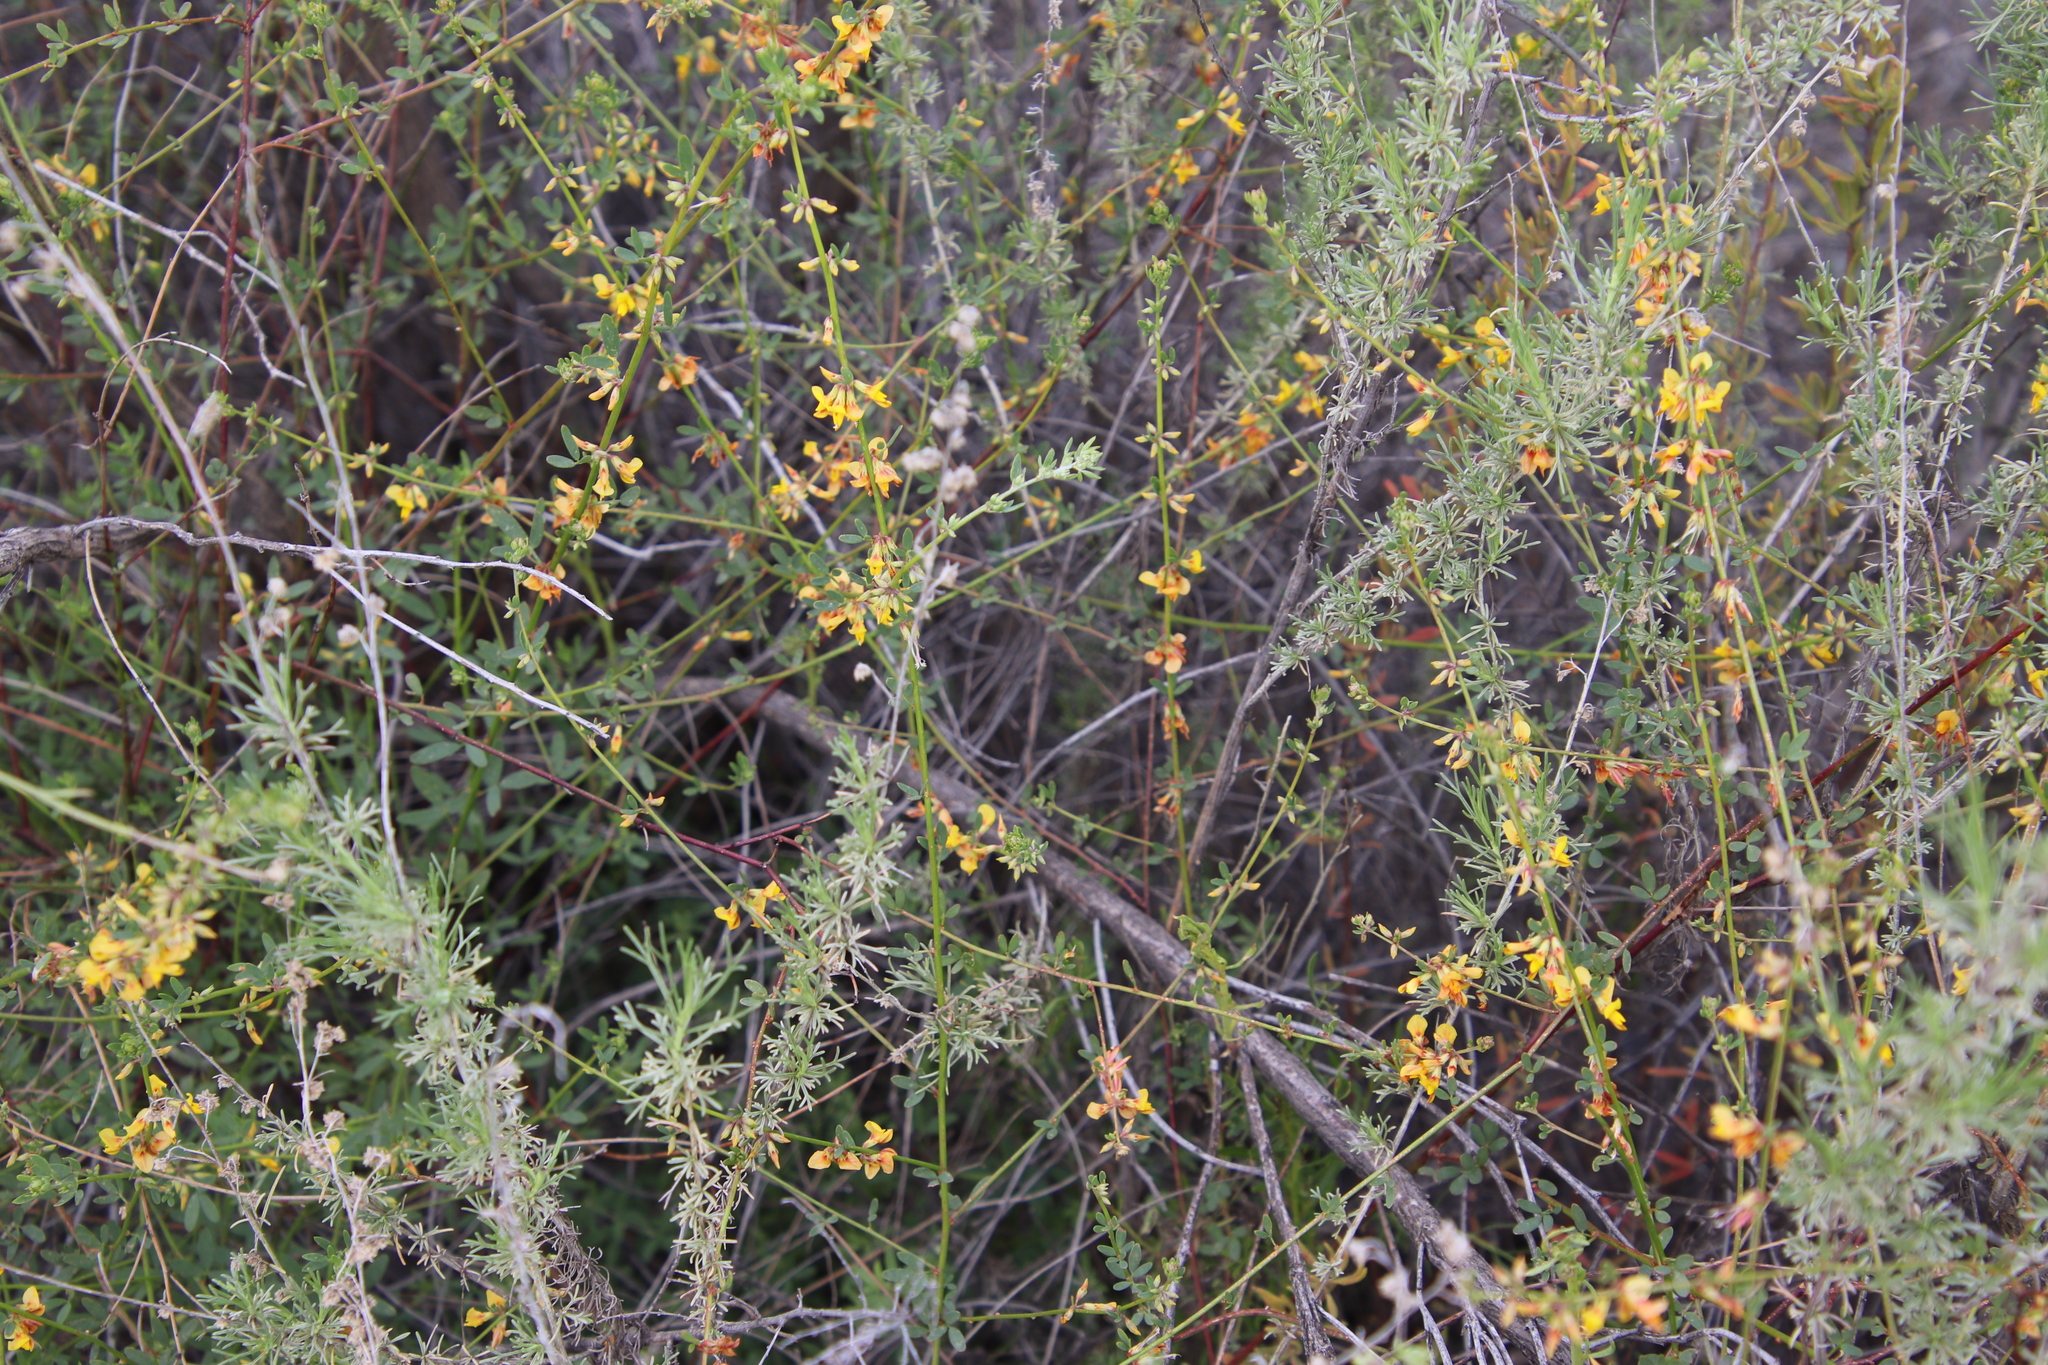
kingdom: Plantae
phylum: Tracheophyta
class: Magnoliopsida
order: Fabales
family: Fabaceae
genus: Acmispon
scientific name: Acmispon glaber
